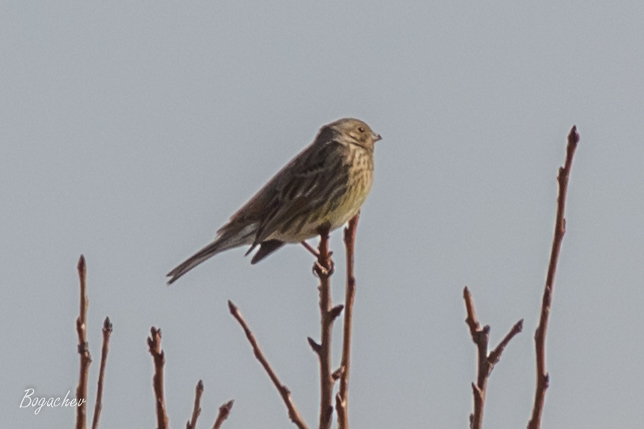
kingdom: Animalia
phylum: Chordata
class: Aves
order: Passeriformes
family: Emberizidae
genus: Emberiza
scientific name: Emberiza citrinella
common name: Yellowhammer
